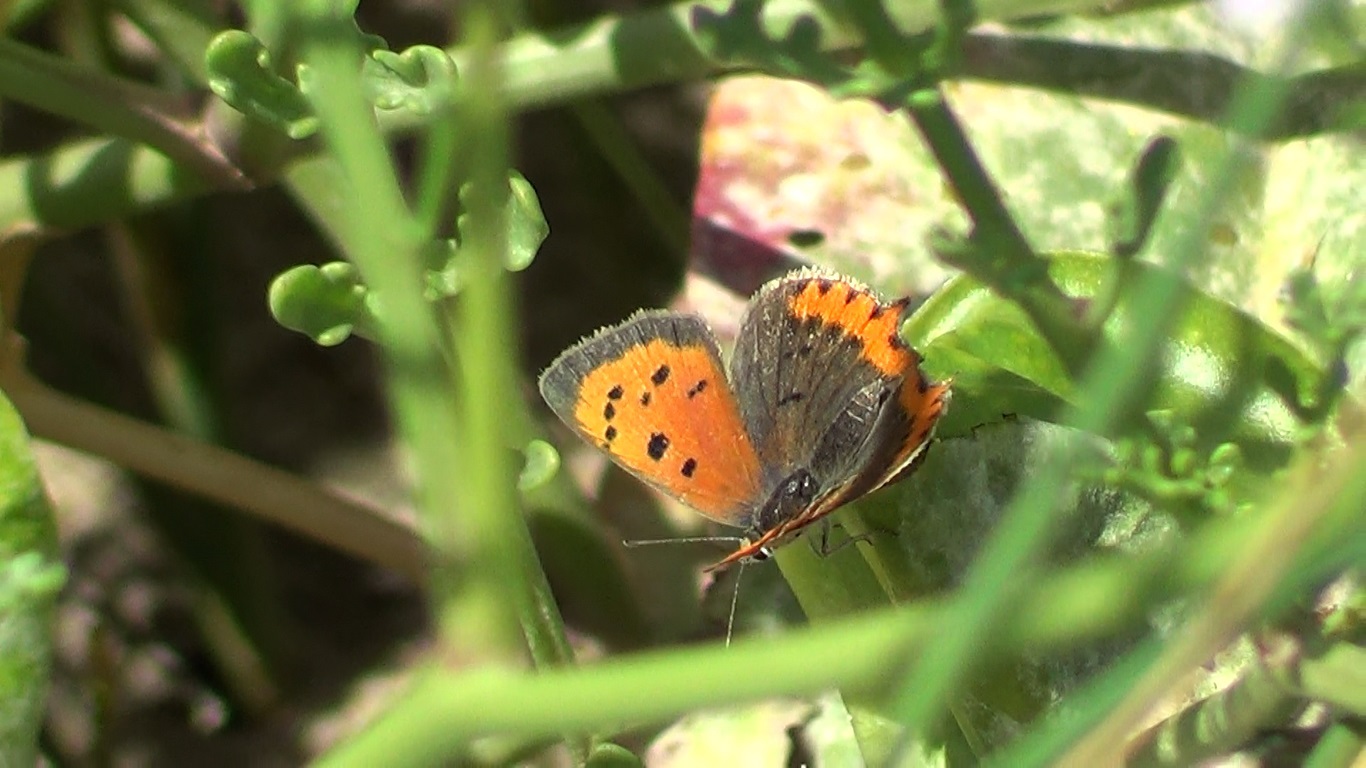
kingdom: Animalia
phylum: Arthropoda
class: Insecta
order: Lepidoptera
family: Lycaenidae
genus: Lycaena
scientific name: Lycaena phlaeas
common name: Small copper
